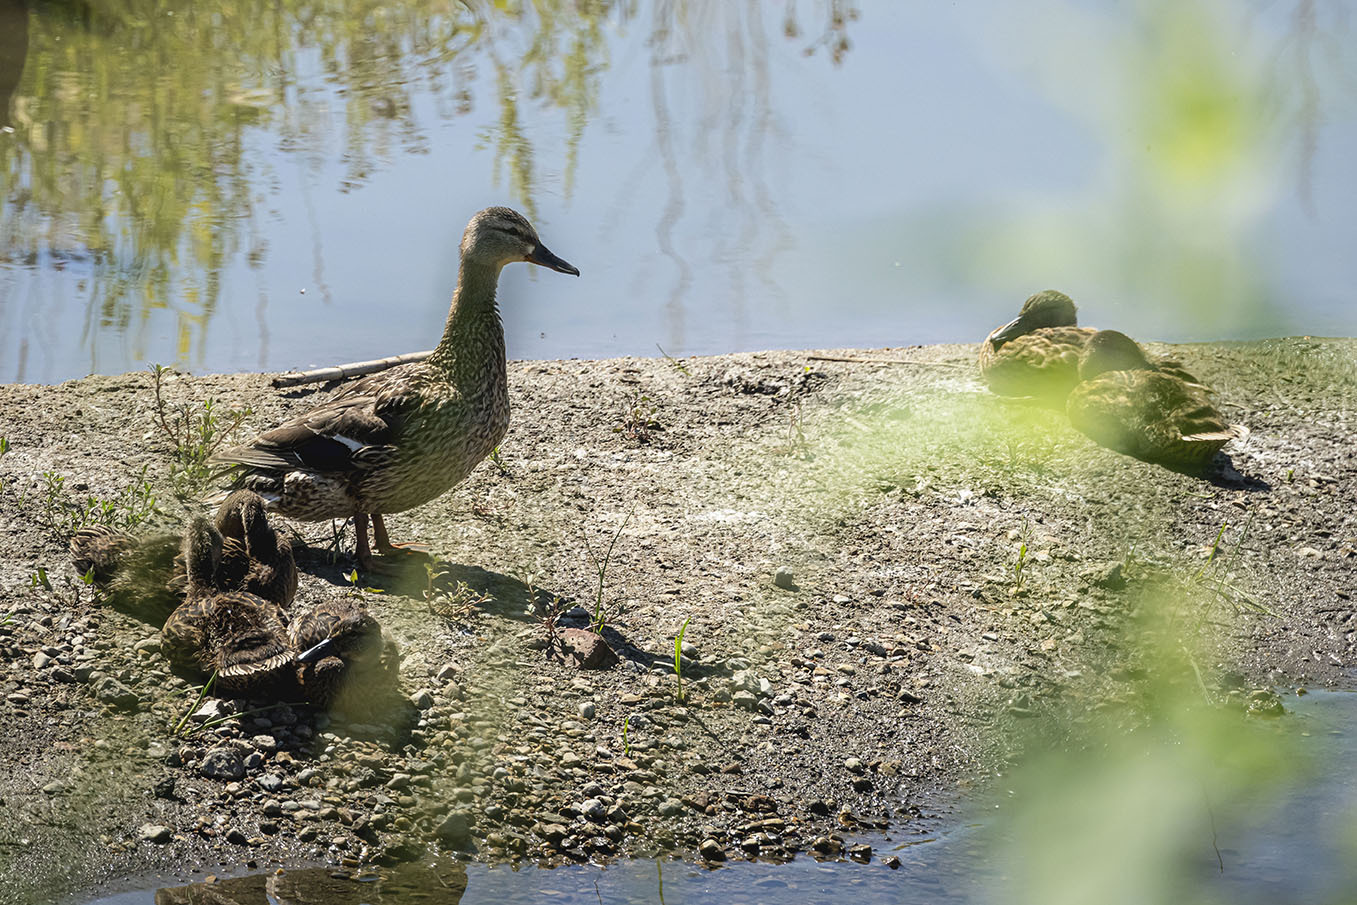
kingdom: Animalia
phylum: Chordata
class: Aves
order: Anseriformes
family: Anatidae
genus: Anas
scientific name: Anas platyrhynchos
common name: Mallard
